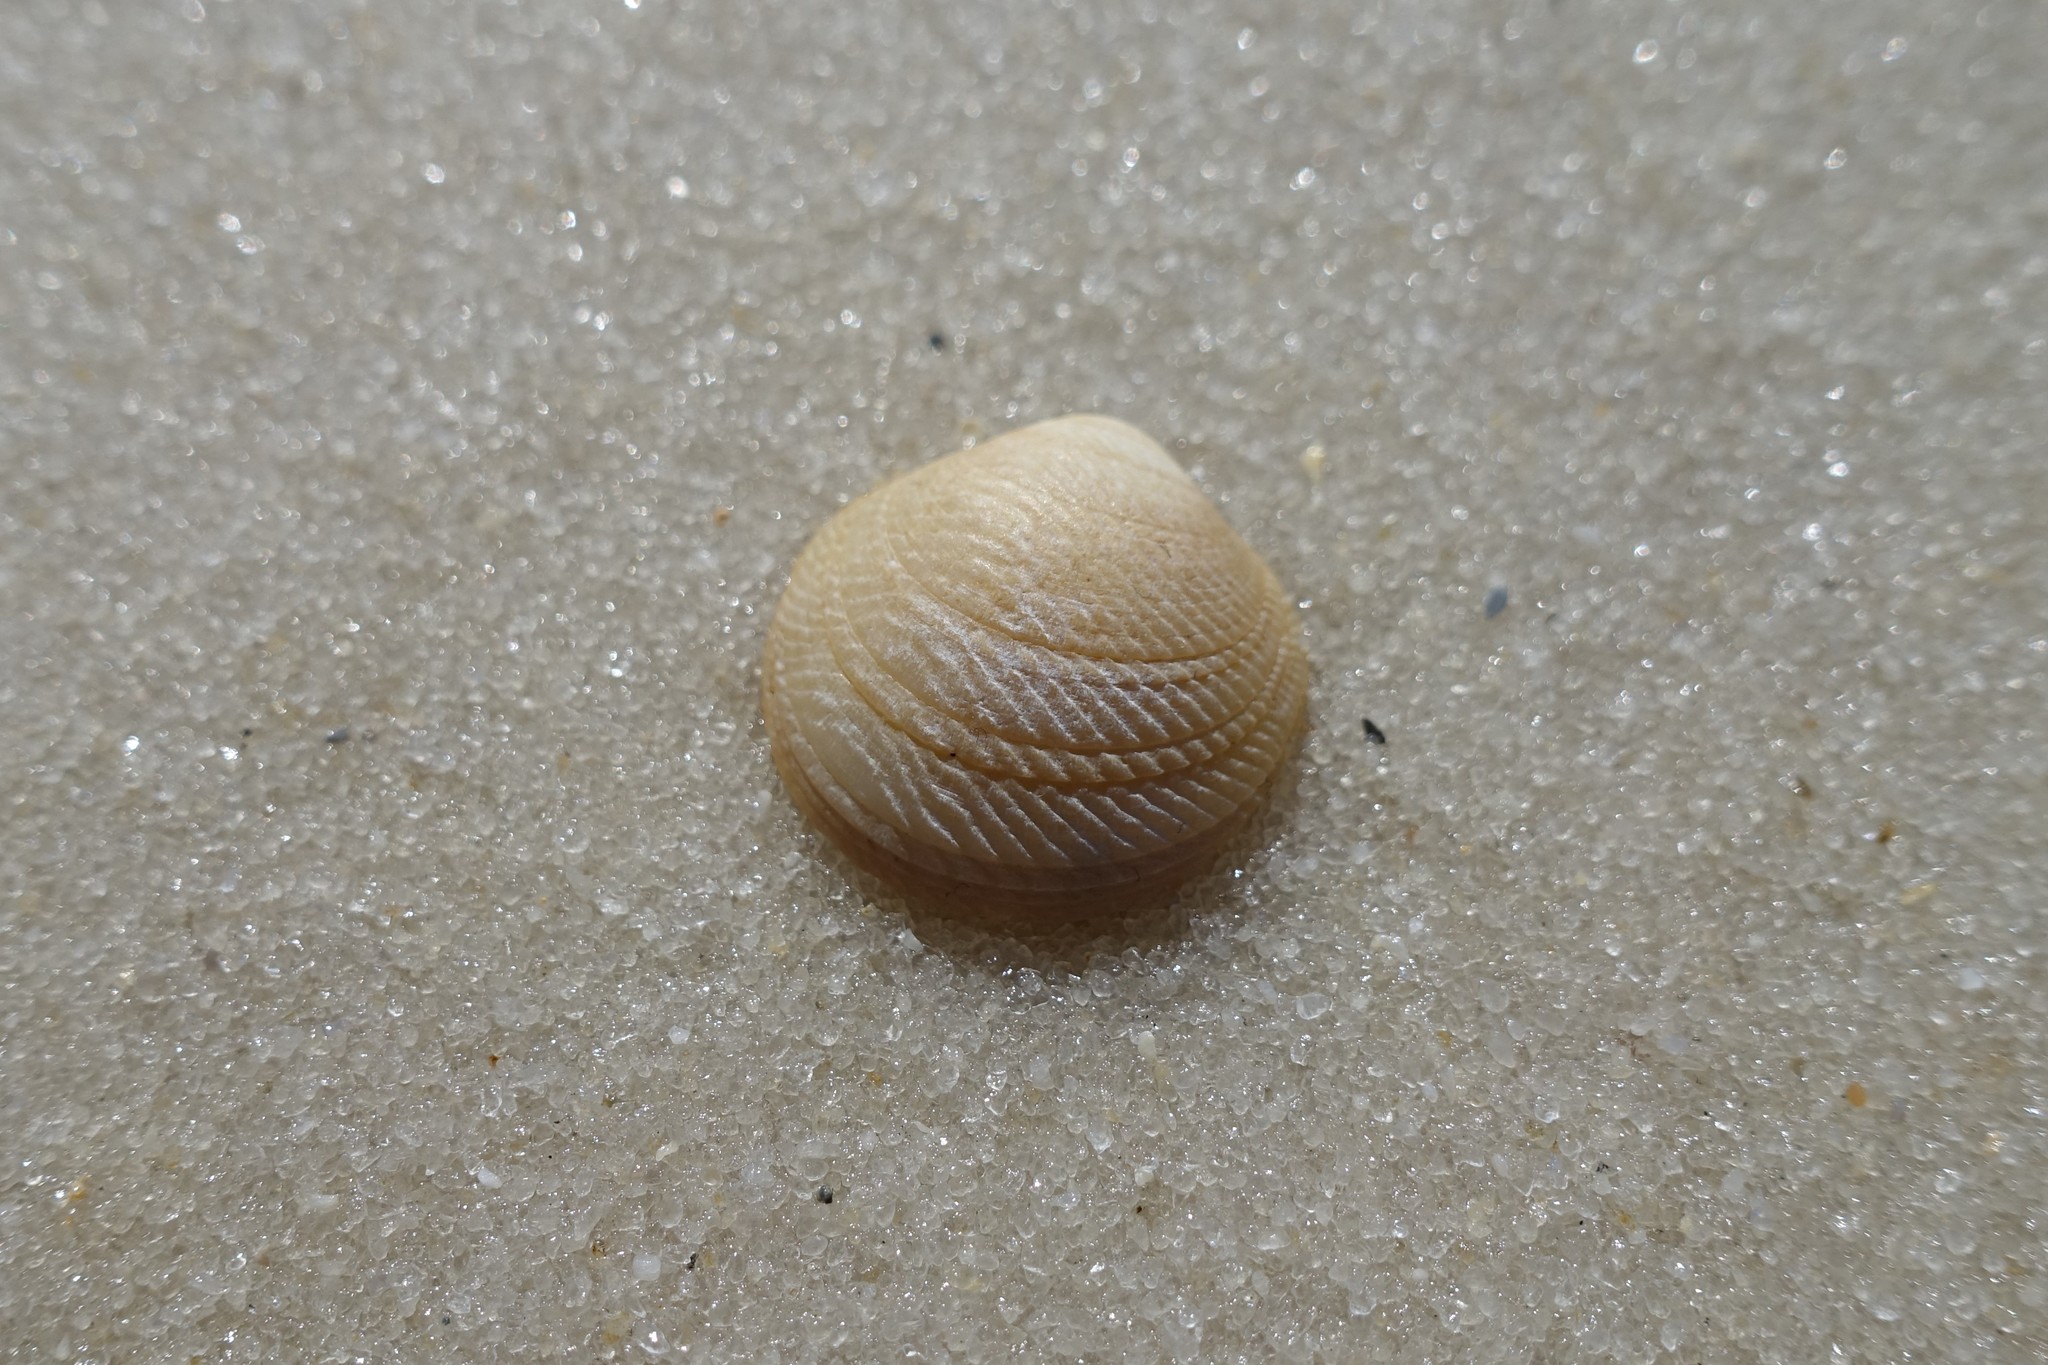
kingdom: Animalia
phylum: Mollusca
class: Bivalvia
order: Lucinida
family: Lucinidae
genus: Divalinga
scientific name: Divalinga quadrisulcata
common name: Cross-hatched lucine
